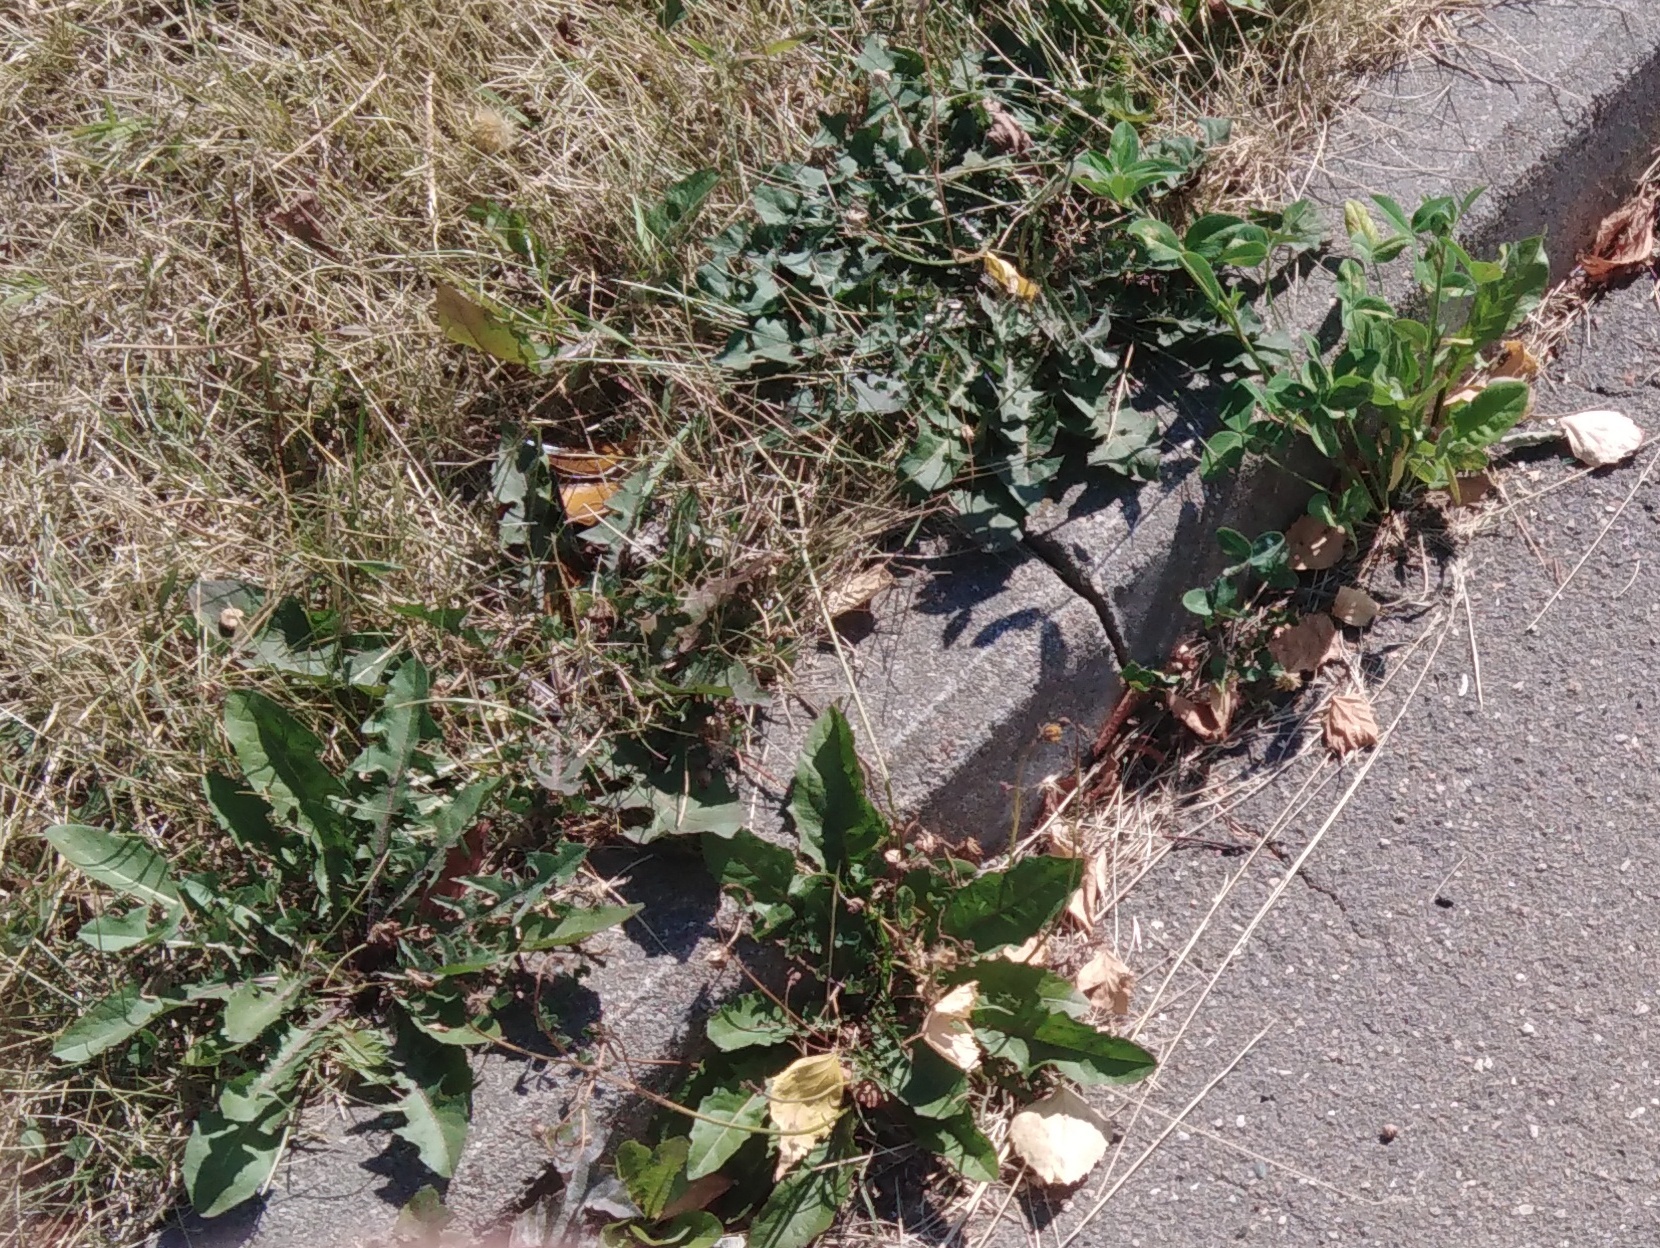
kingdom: Plantae
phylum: Tracheophyta
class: Magnoliopsida
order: Asterales
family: Asteraceae
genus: Taraxacum
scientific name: Taraxacum officinale
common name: Common dandelion
